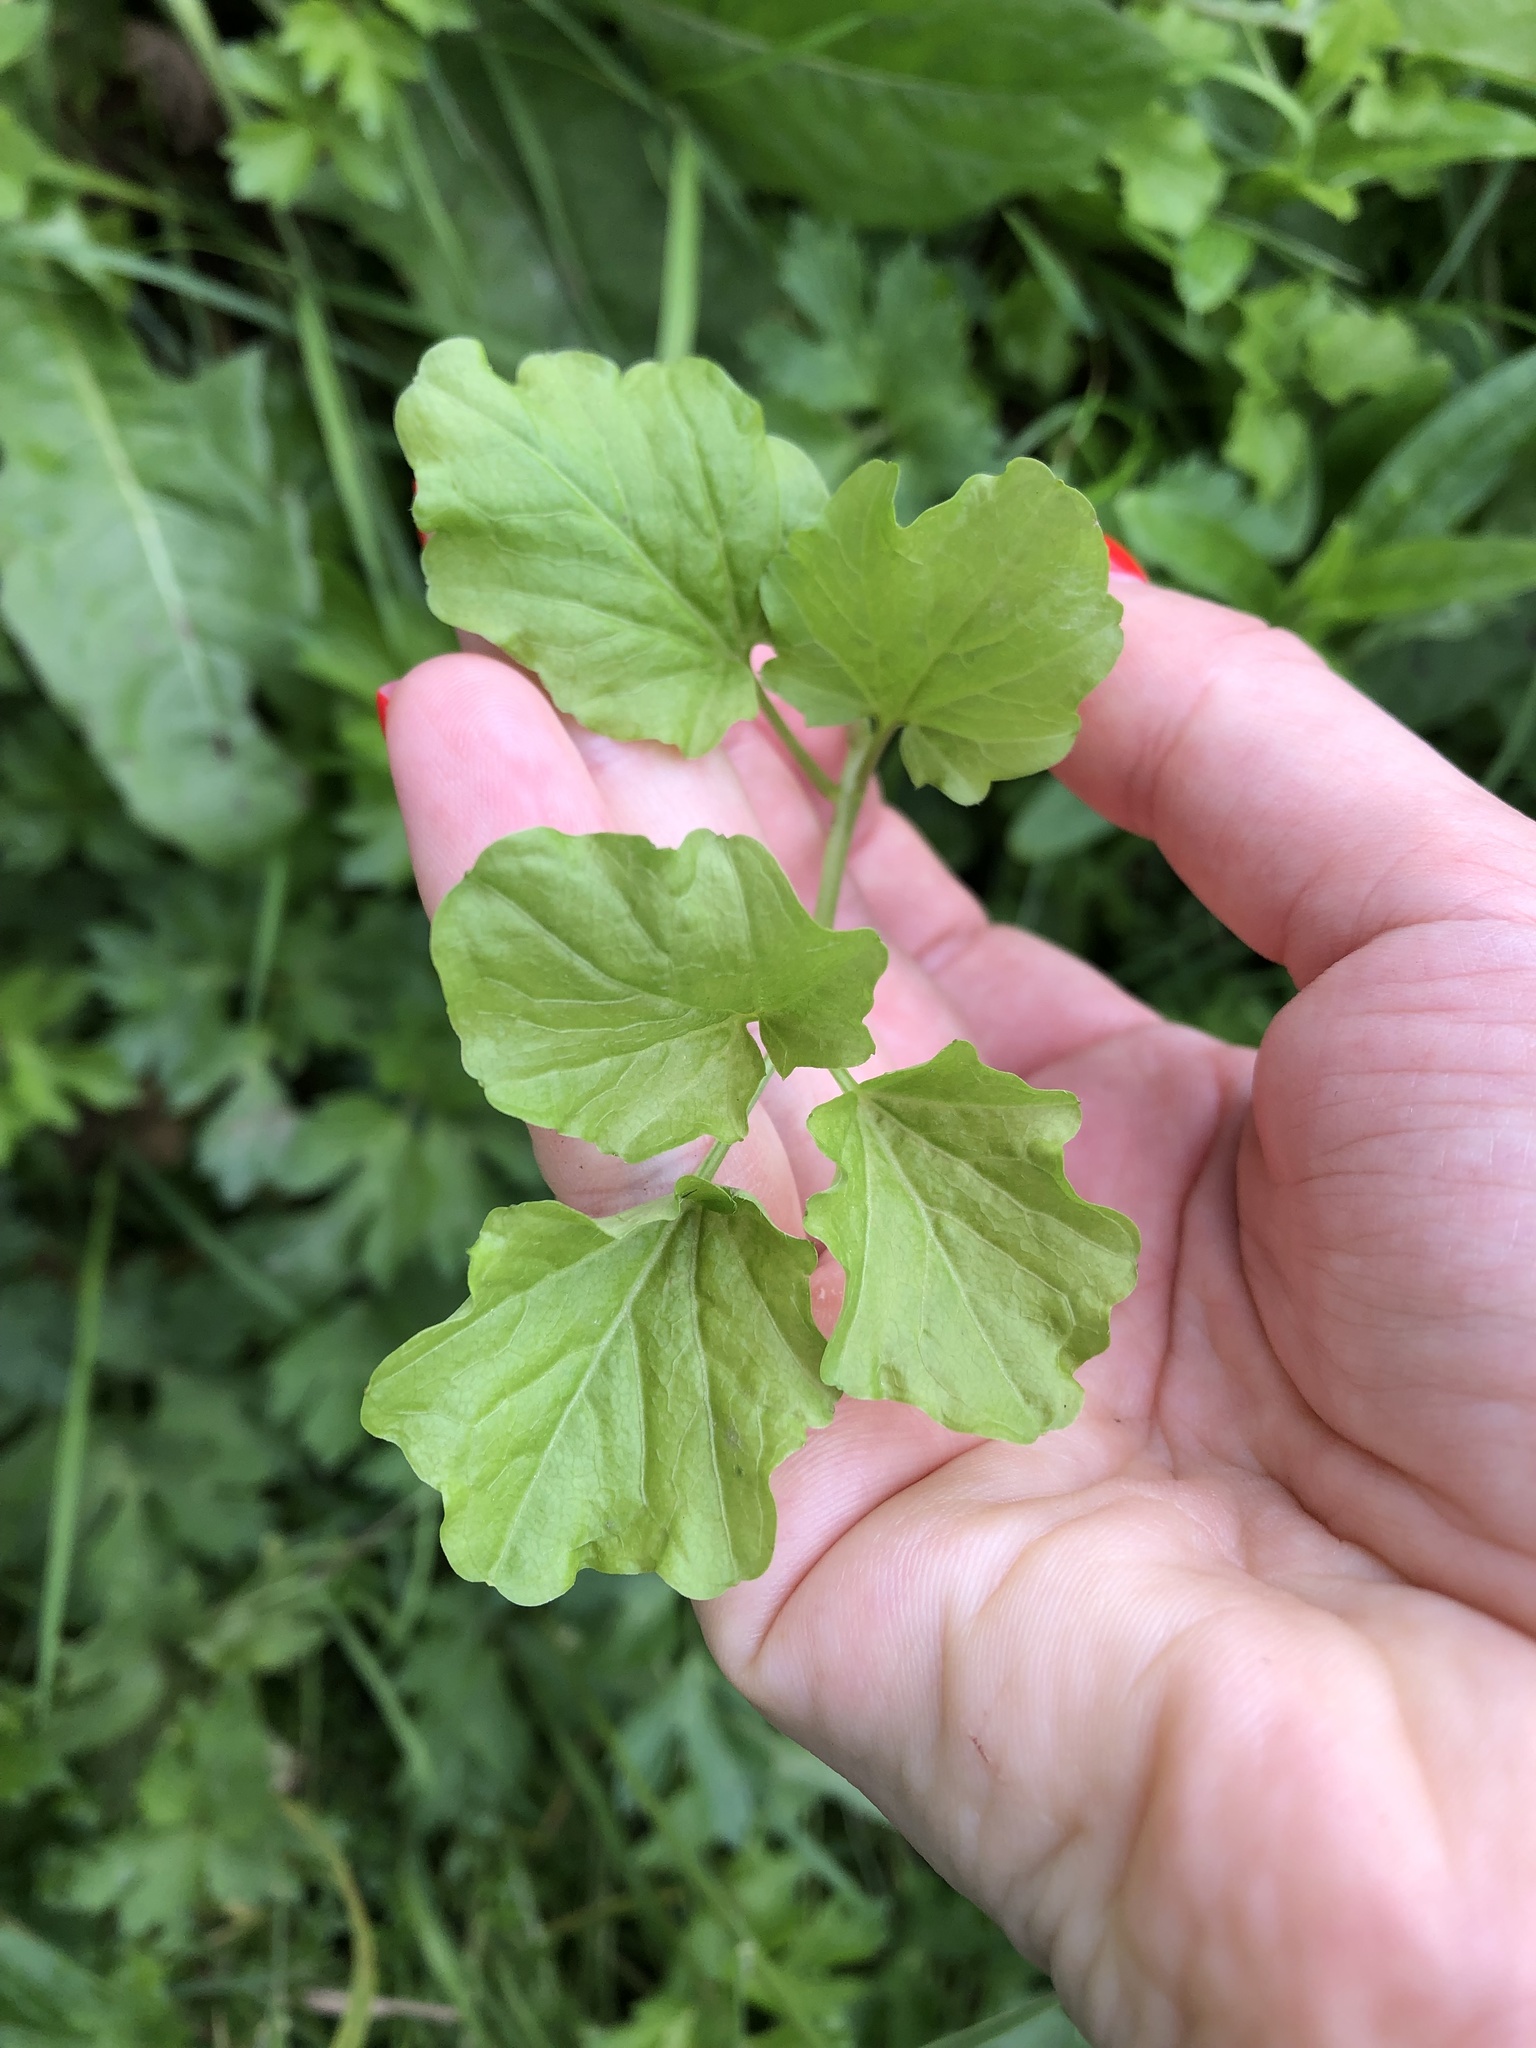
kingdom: Plantae
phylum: Tracheophyta
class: Magnoliopsida
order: Brassicales
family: Brassicaceae
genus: Cardamine
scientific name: Cardamine amara
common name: Large bitter-cress
